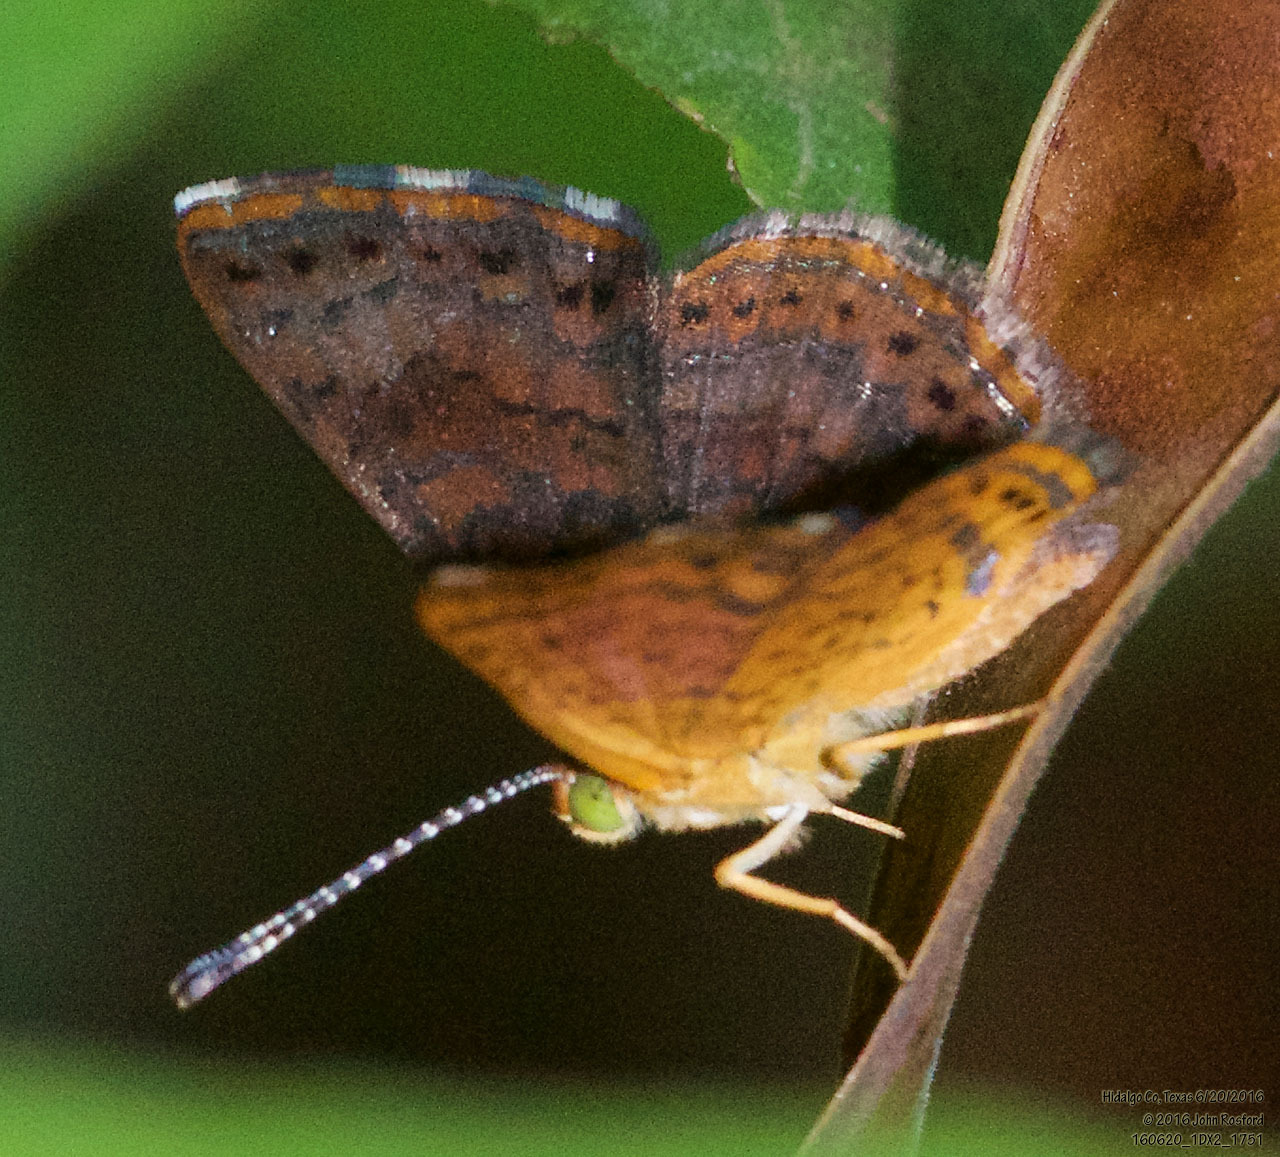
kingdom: Animalia
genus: Calephelis
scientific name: Calephelis nemesis
